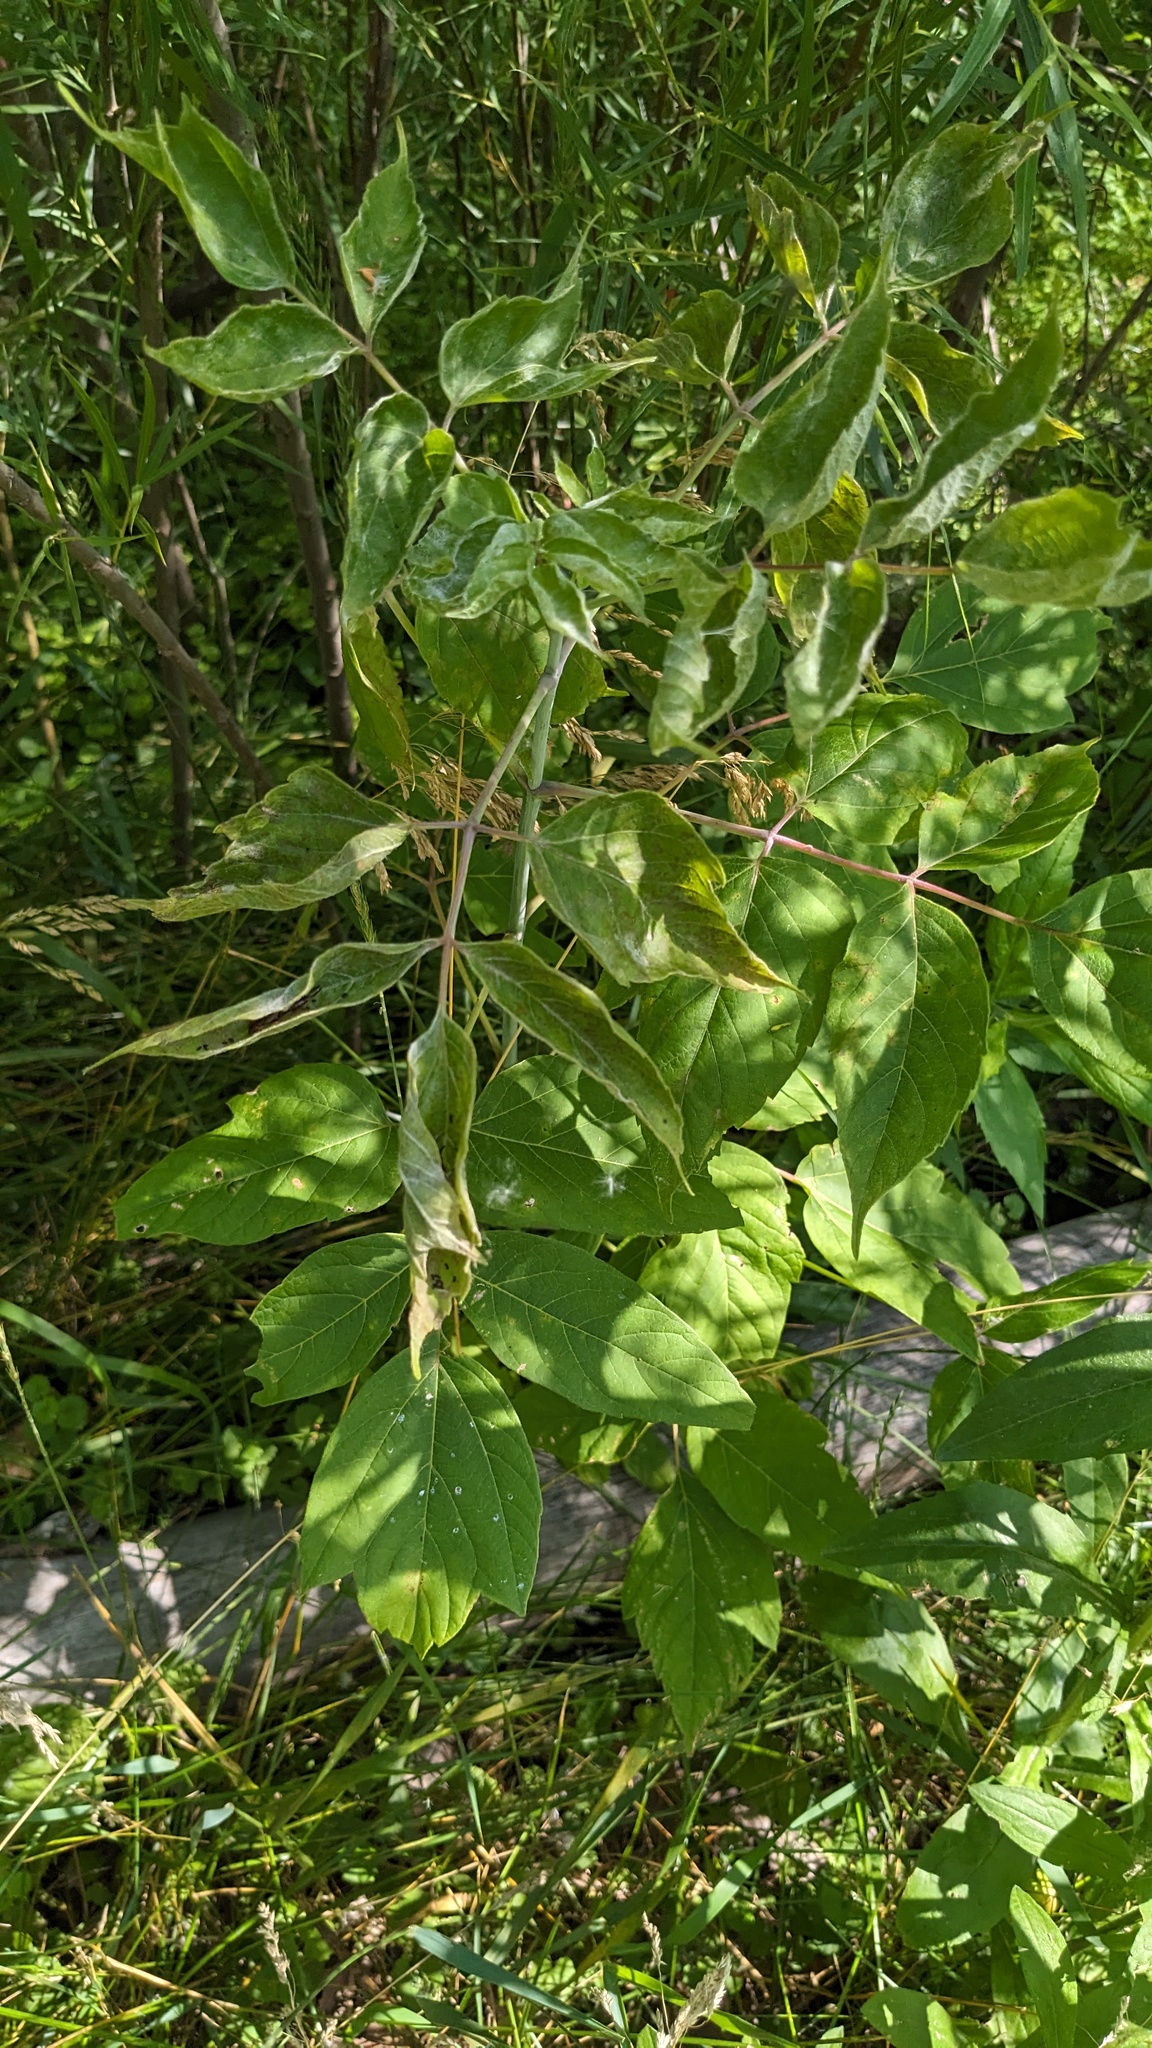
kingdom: Plantae
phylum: Tracheophyta
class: Magnoliopsida
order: Sapindales
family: Sapindaceae
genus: Acer
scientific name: Acer negundo
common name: Ashleaf maple
